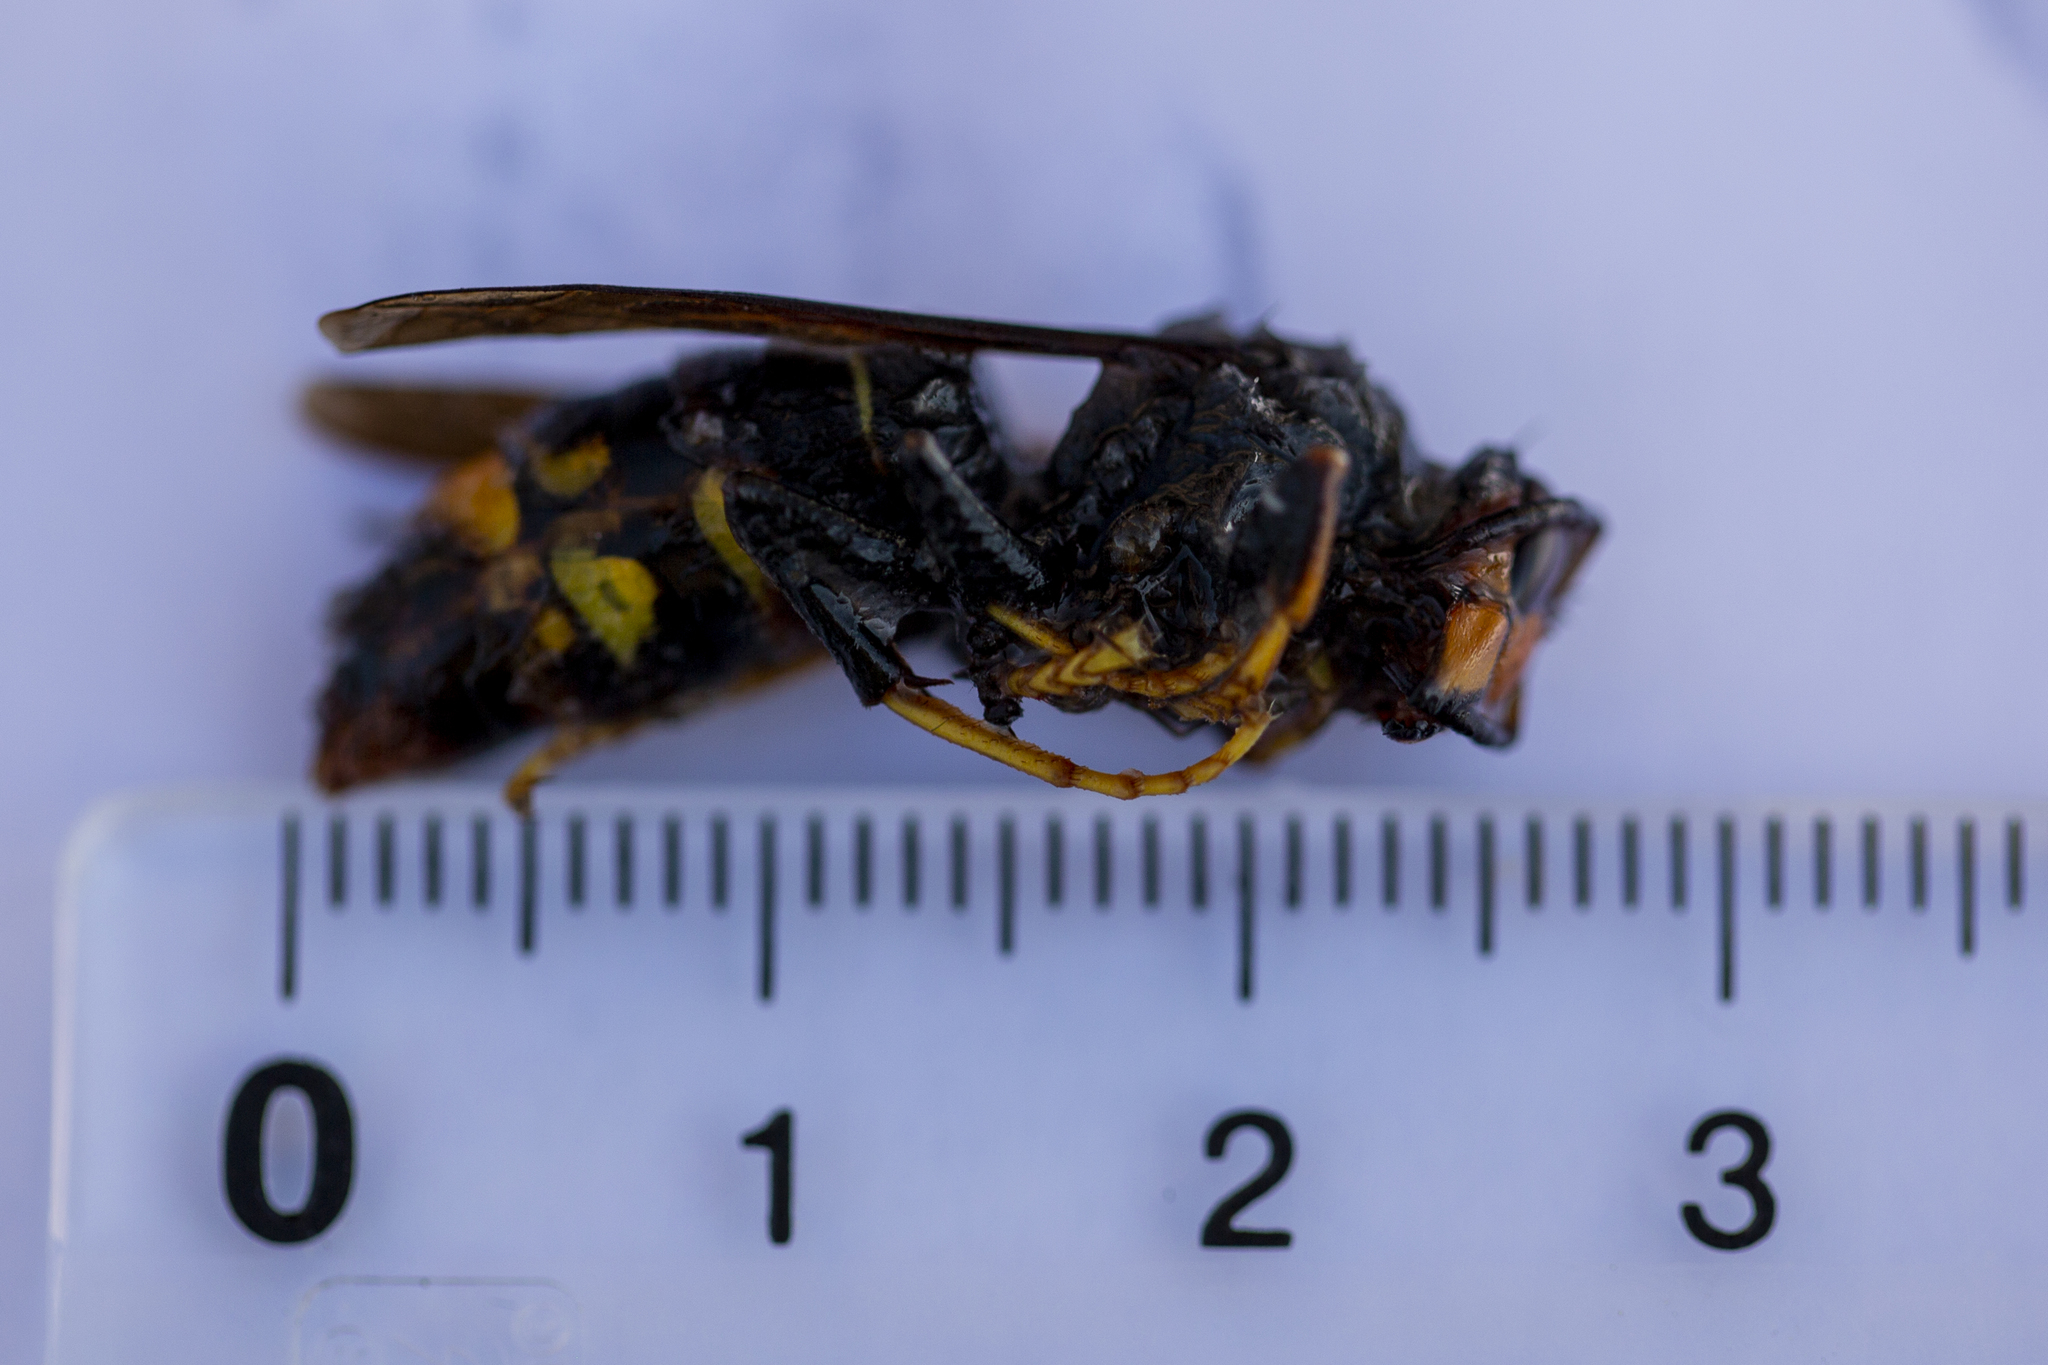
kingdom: Animalia
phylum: Arthropoda
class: Insecta
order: Hymenoptera
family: Vespidae
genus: Vespa
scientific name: Vespa velutina
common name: Asian hornet
